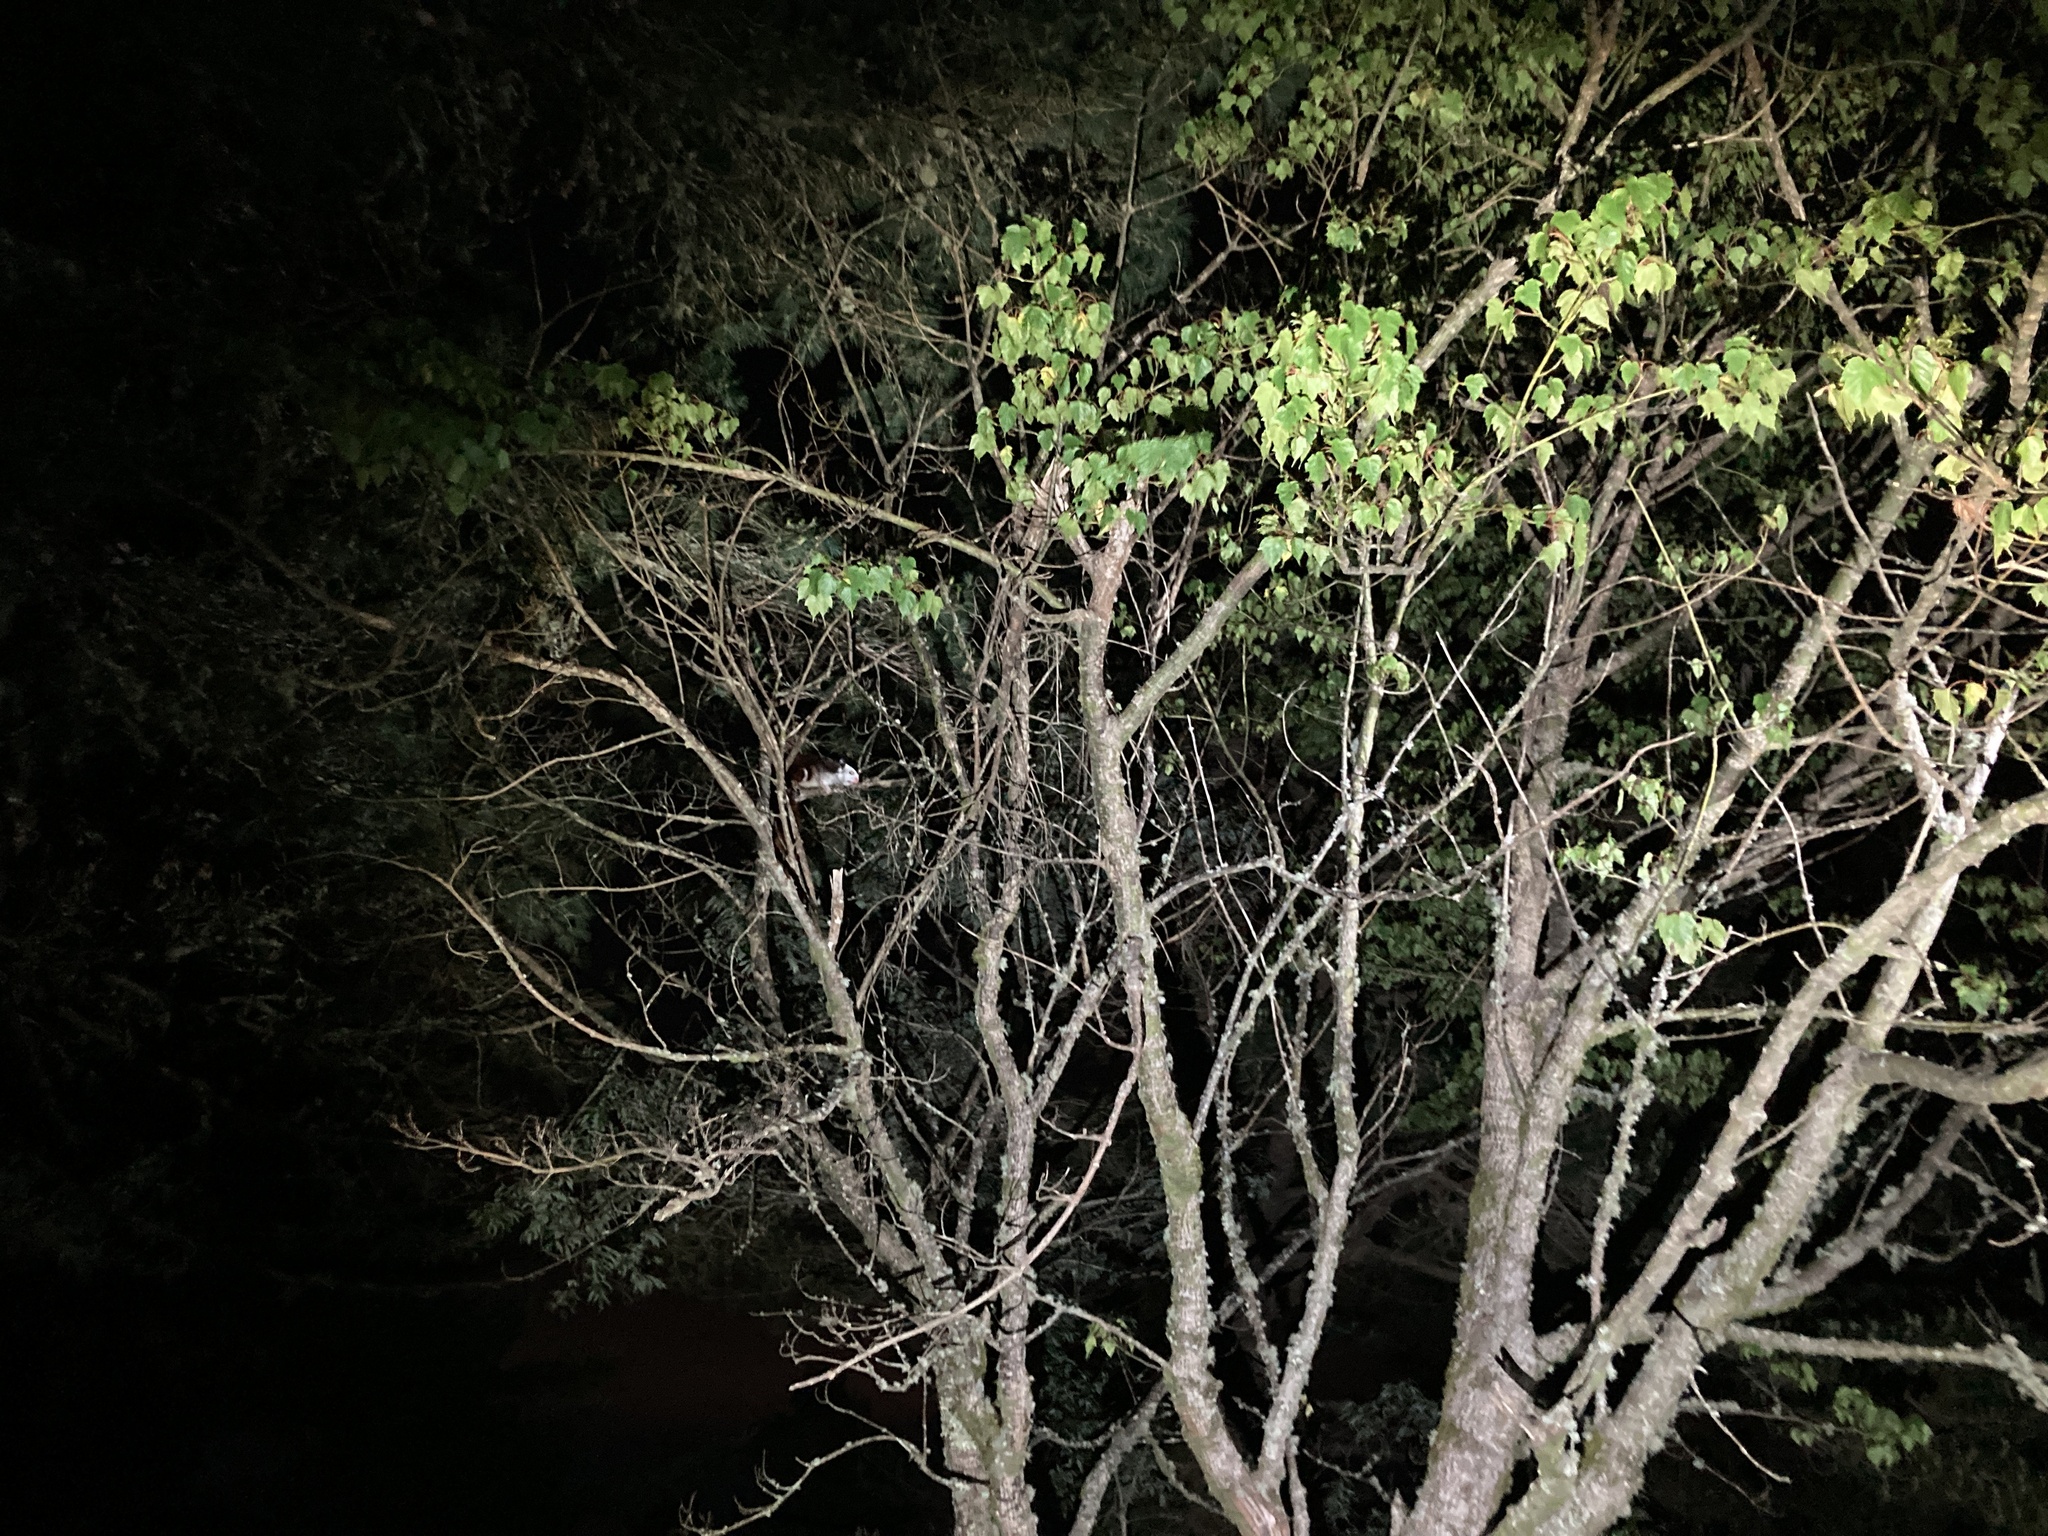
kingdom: Animalia
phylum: Chordata
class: Mammalia
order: Rodentia
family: Sciuridae
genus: Petaurista
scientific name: Petaurista lena
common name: Taiwan giant flying squirrel
